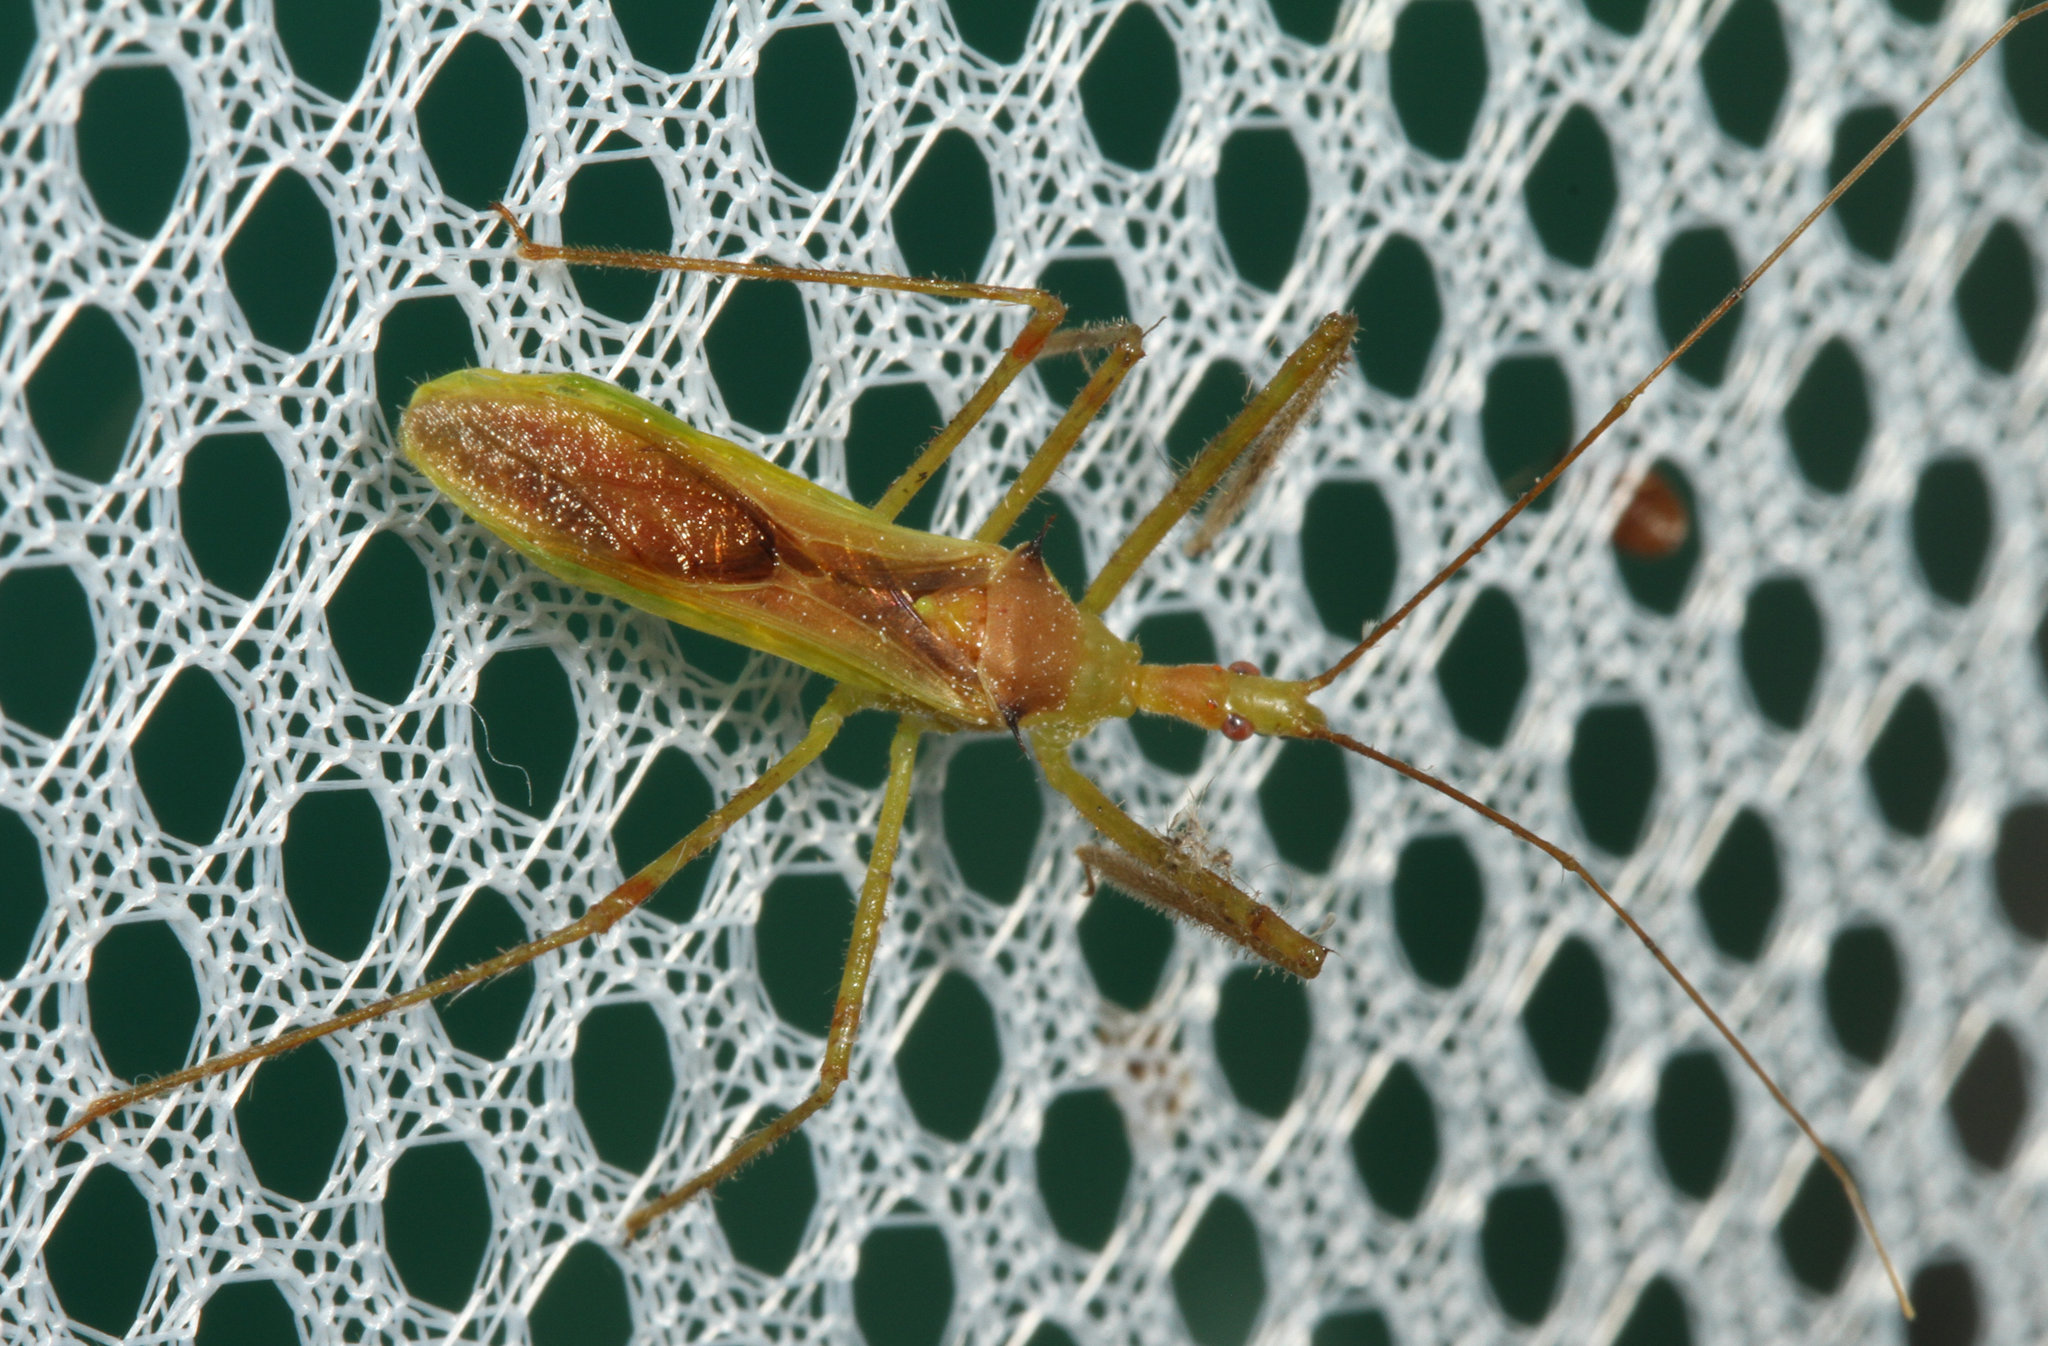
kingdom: Animalia
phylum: Arthropoda
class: Insecta
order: Hemiptera
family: Reduviidae
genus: Zelus
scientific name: Zelus luridus
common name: Pale green assassin bug
